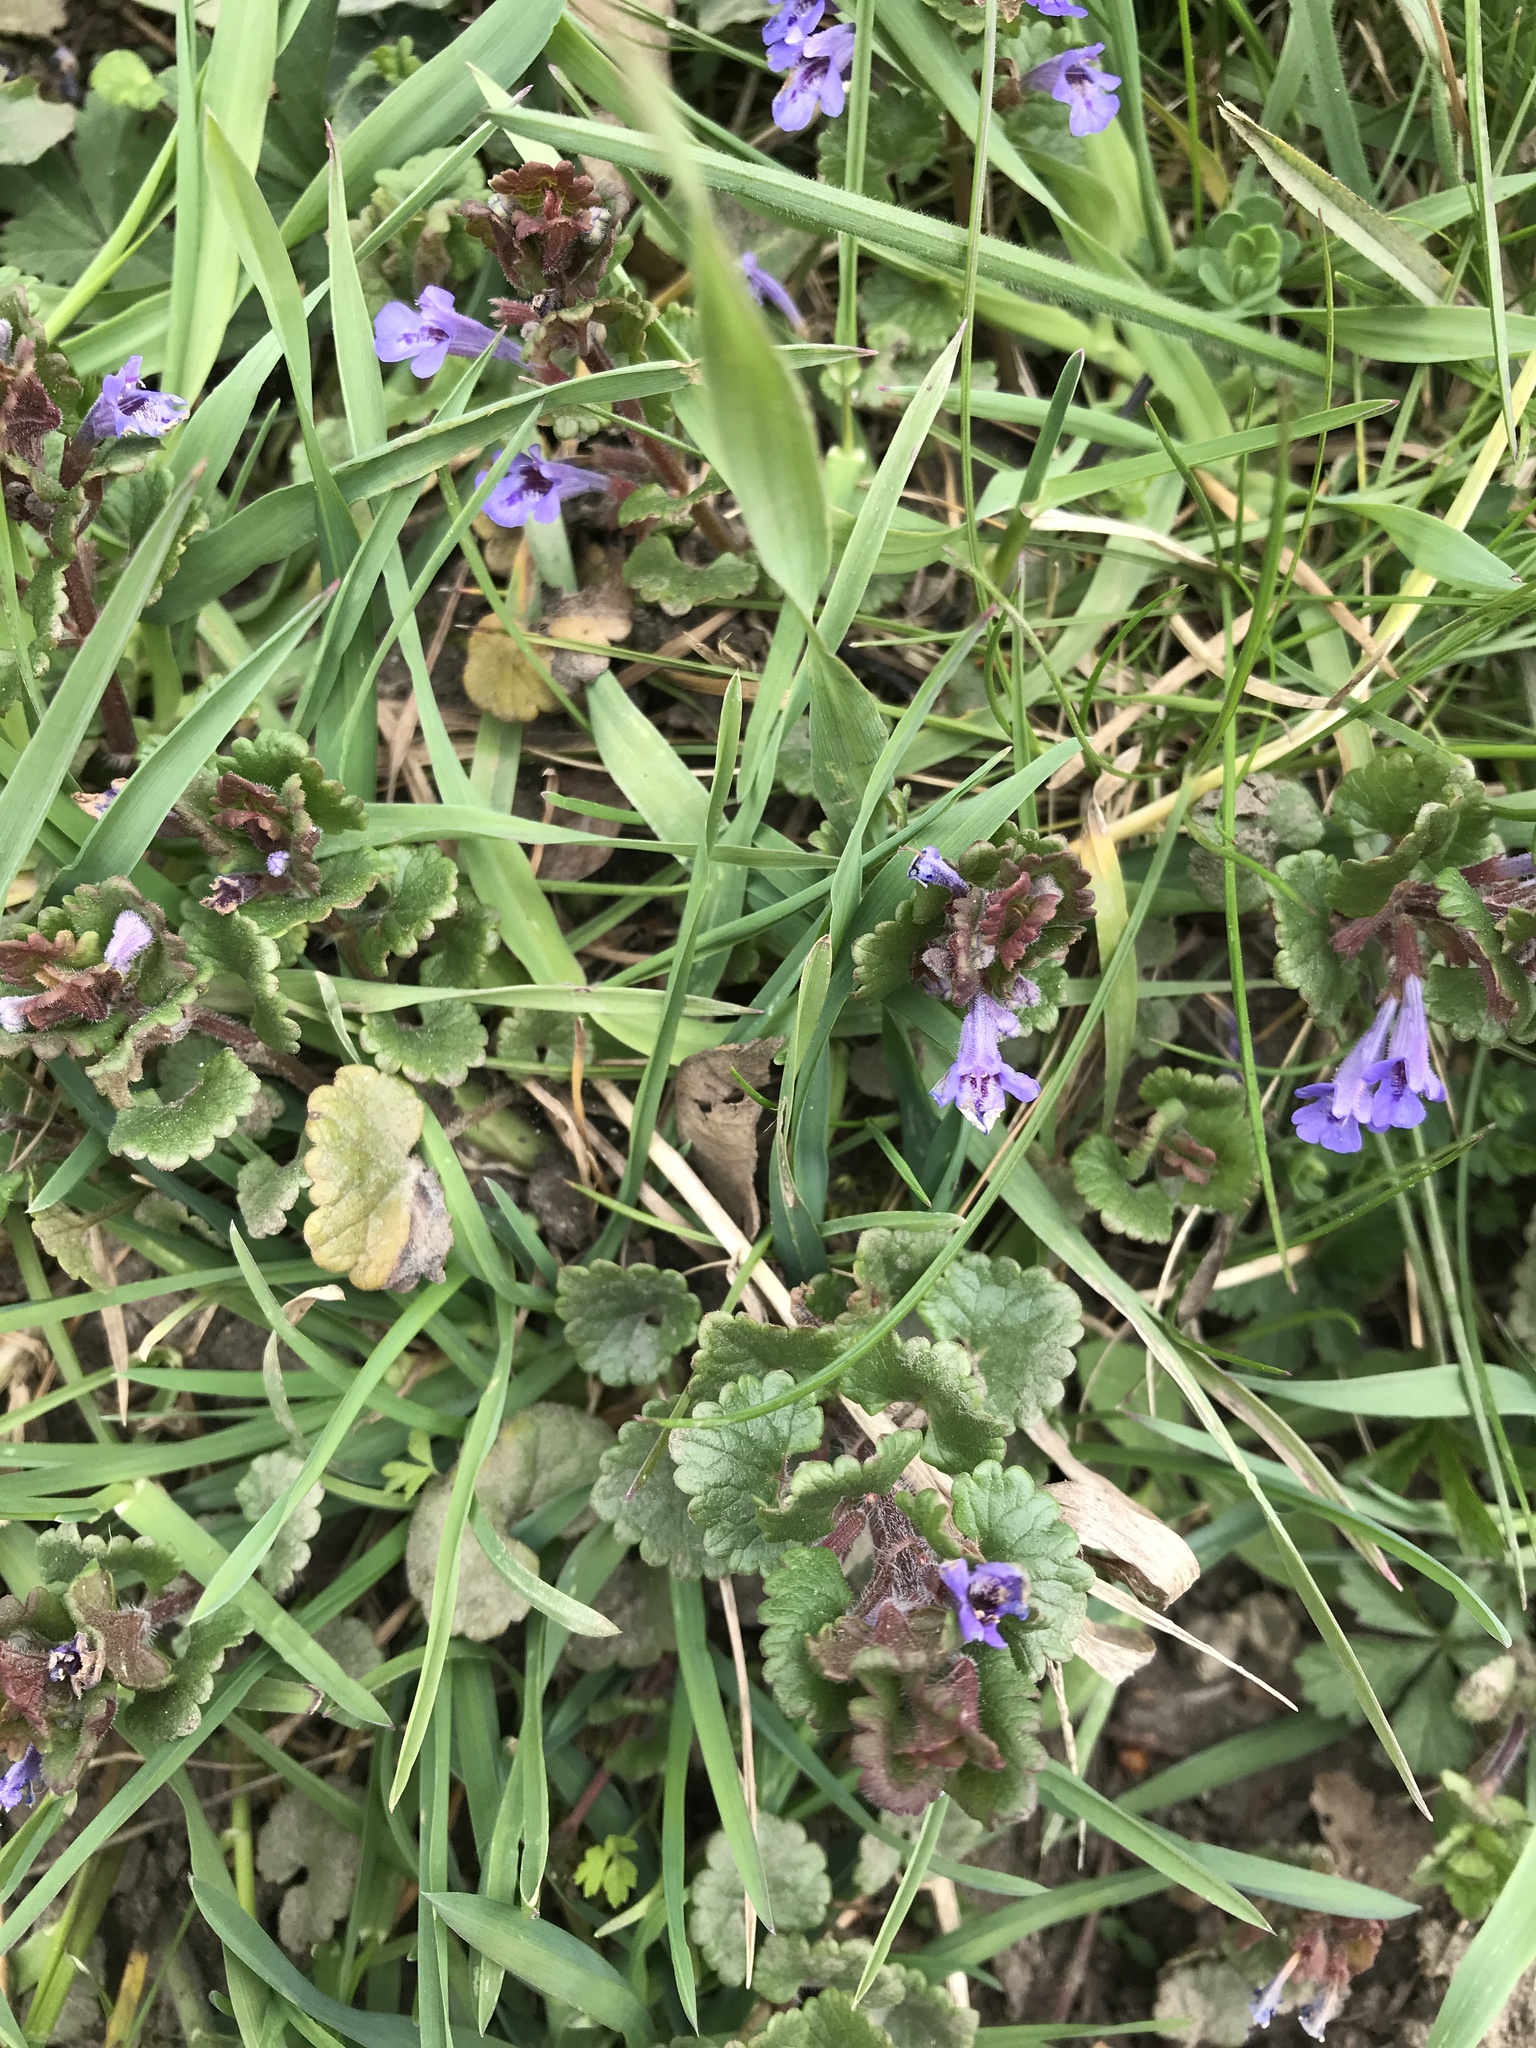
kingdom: Plantae
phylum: Tracheophyta
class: Magnoliopsida
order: Lamiales
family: Lamiaceae
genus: Glechoma
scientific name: Glechoma hederacea
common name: Ground ivy
